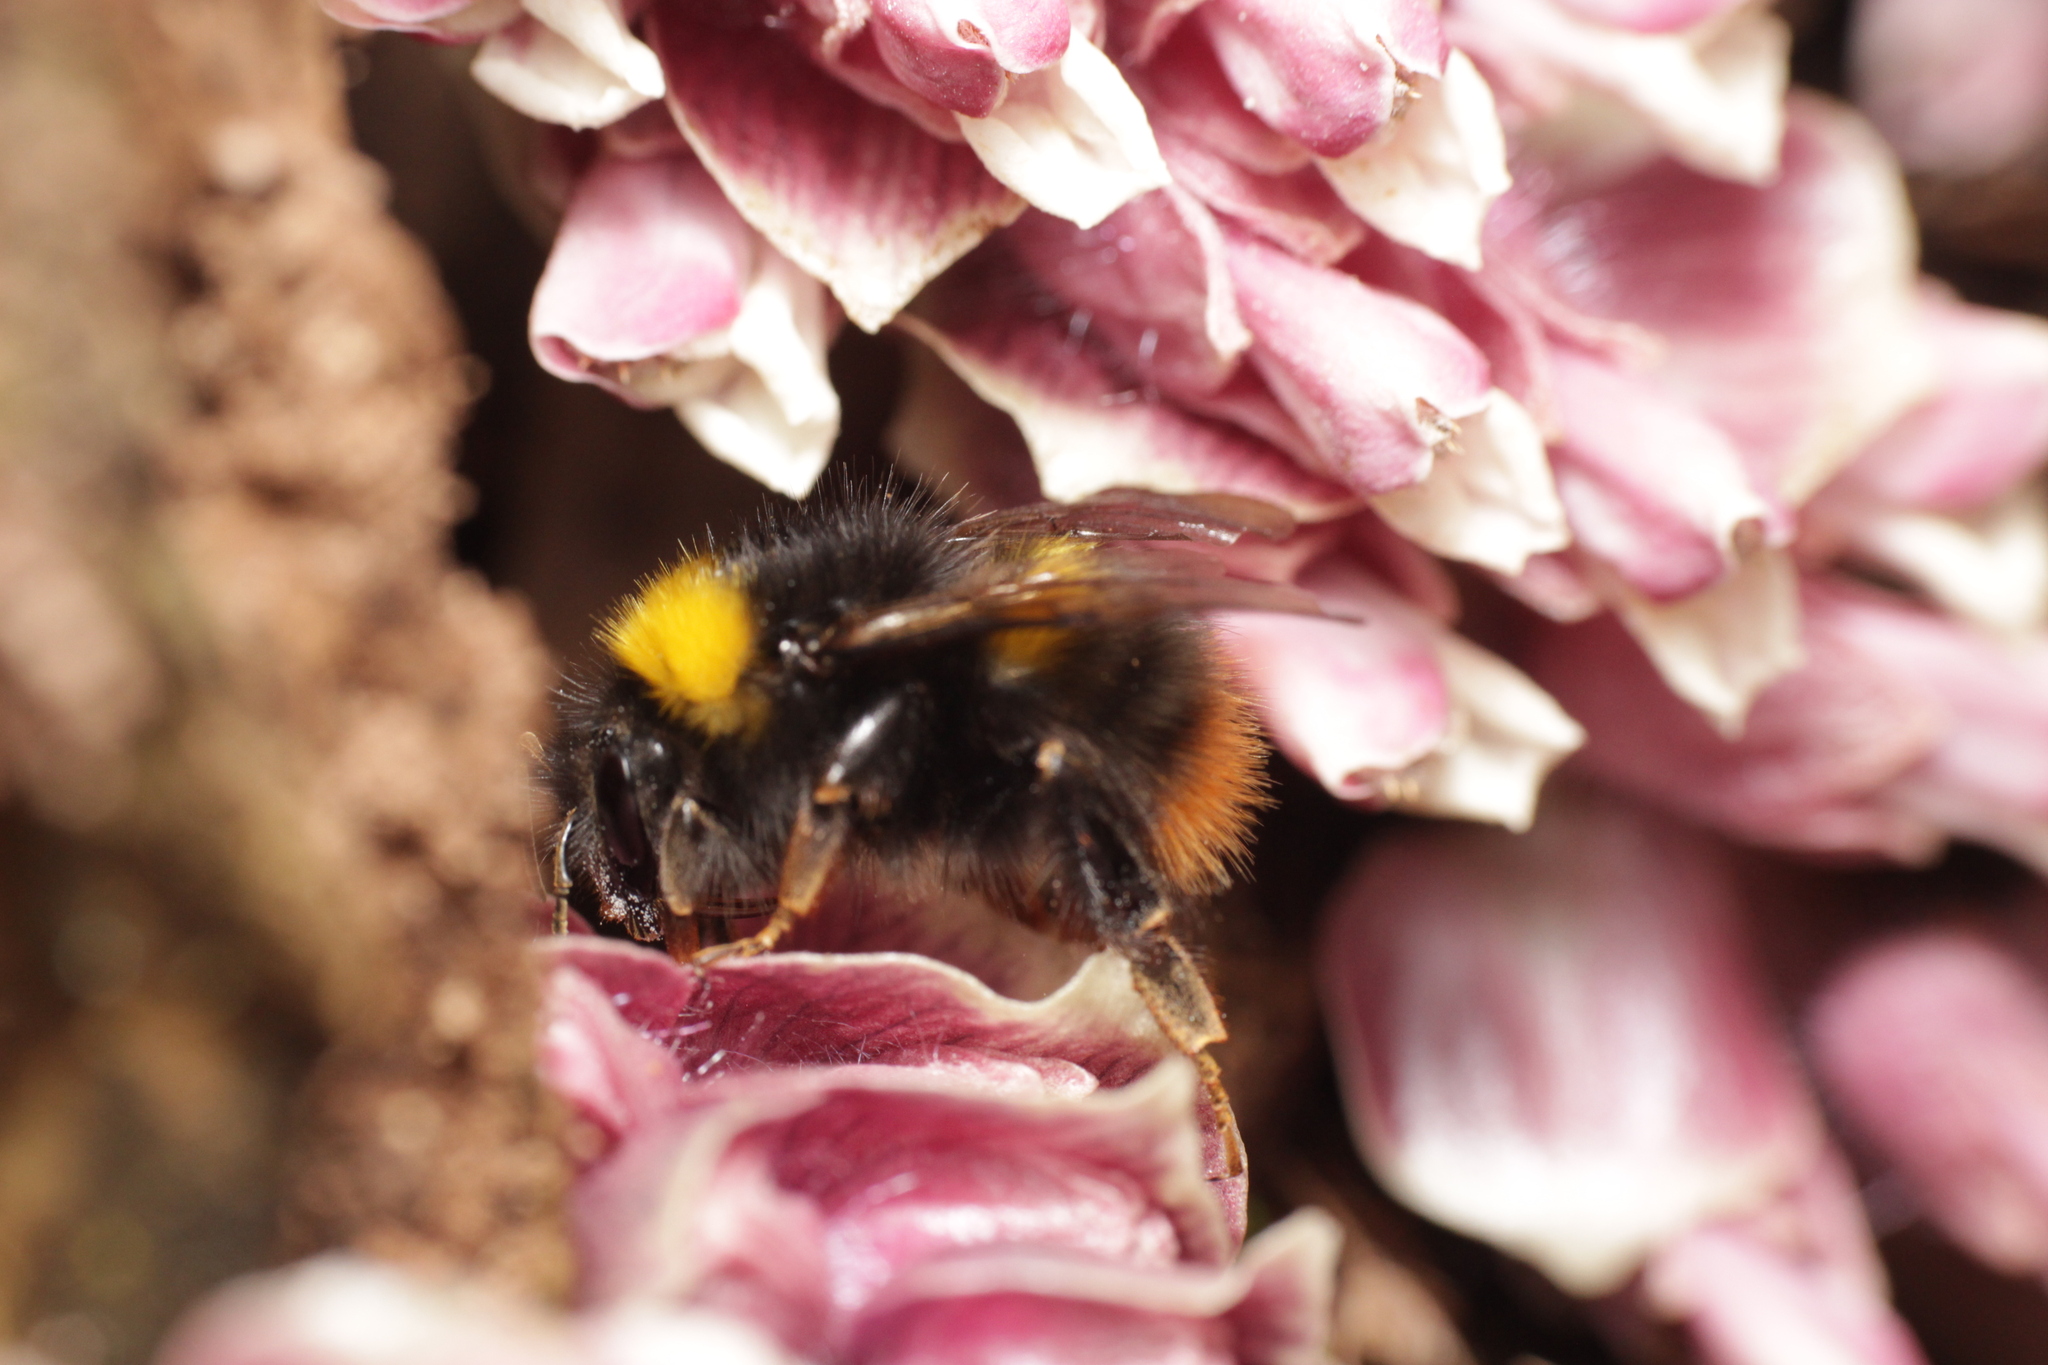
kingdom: Animalia
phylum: Arthropoda
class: Insecta
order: Hymenoptera
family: Apidae
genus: Bombus
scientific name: Bombus pratorum
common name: Early humble-bee
